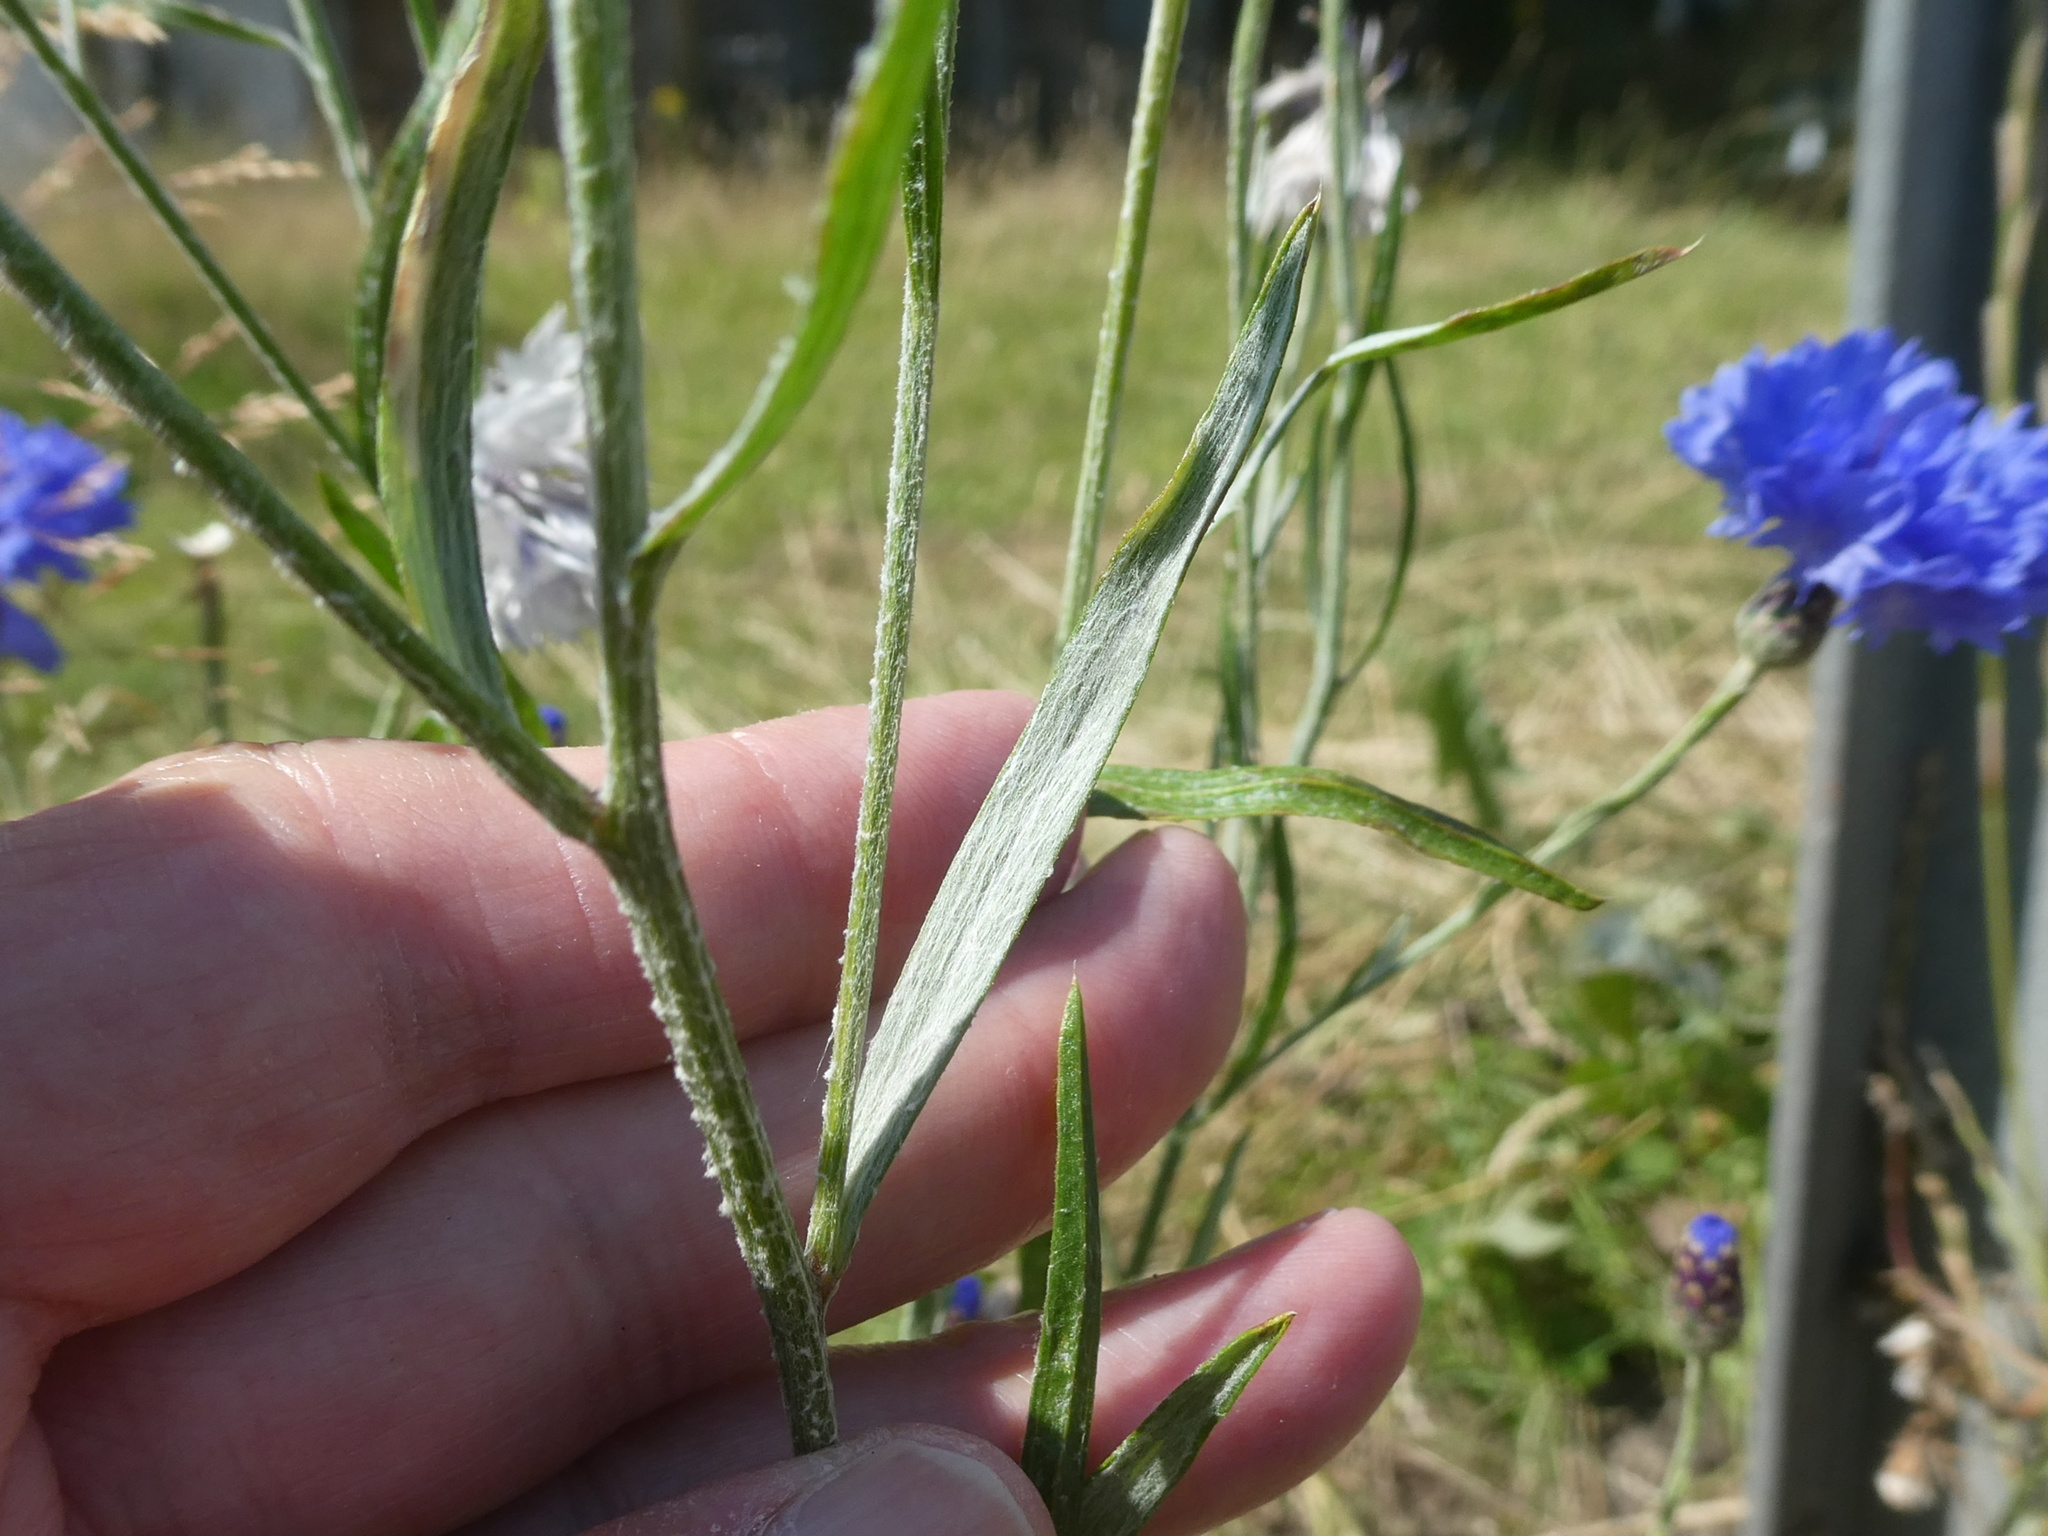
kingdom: Plantae
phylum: Tracheophyta
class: Magnoliopsida
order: Asterales
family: Asteraceae
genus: Centaurea
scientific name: Centaurea cyanus
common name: Cornflower
